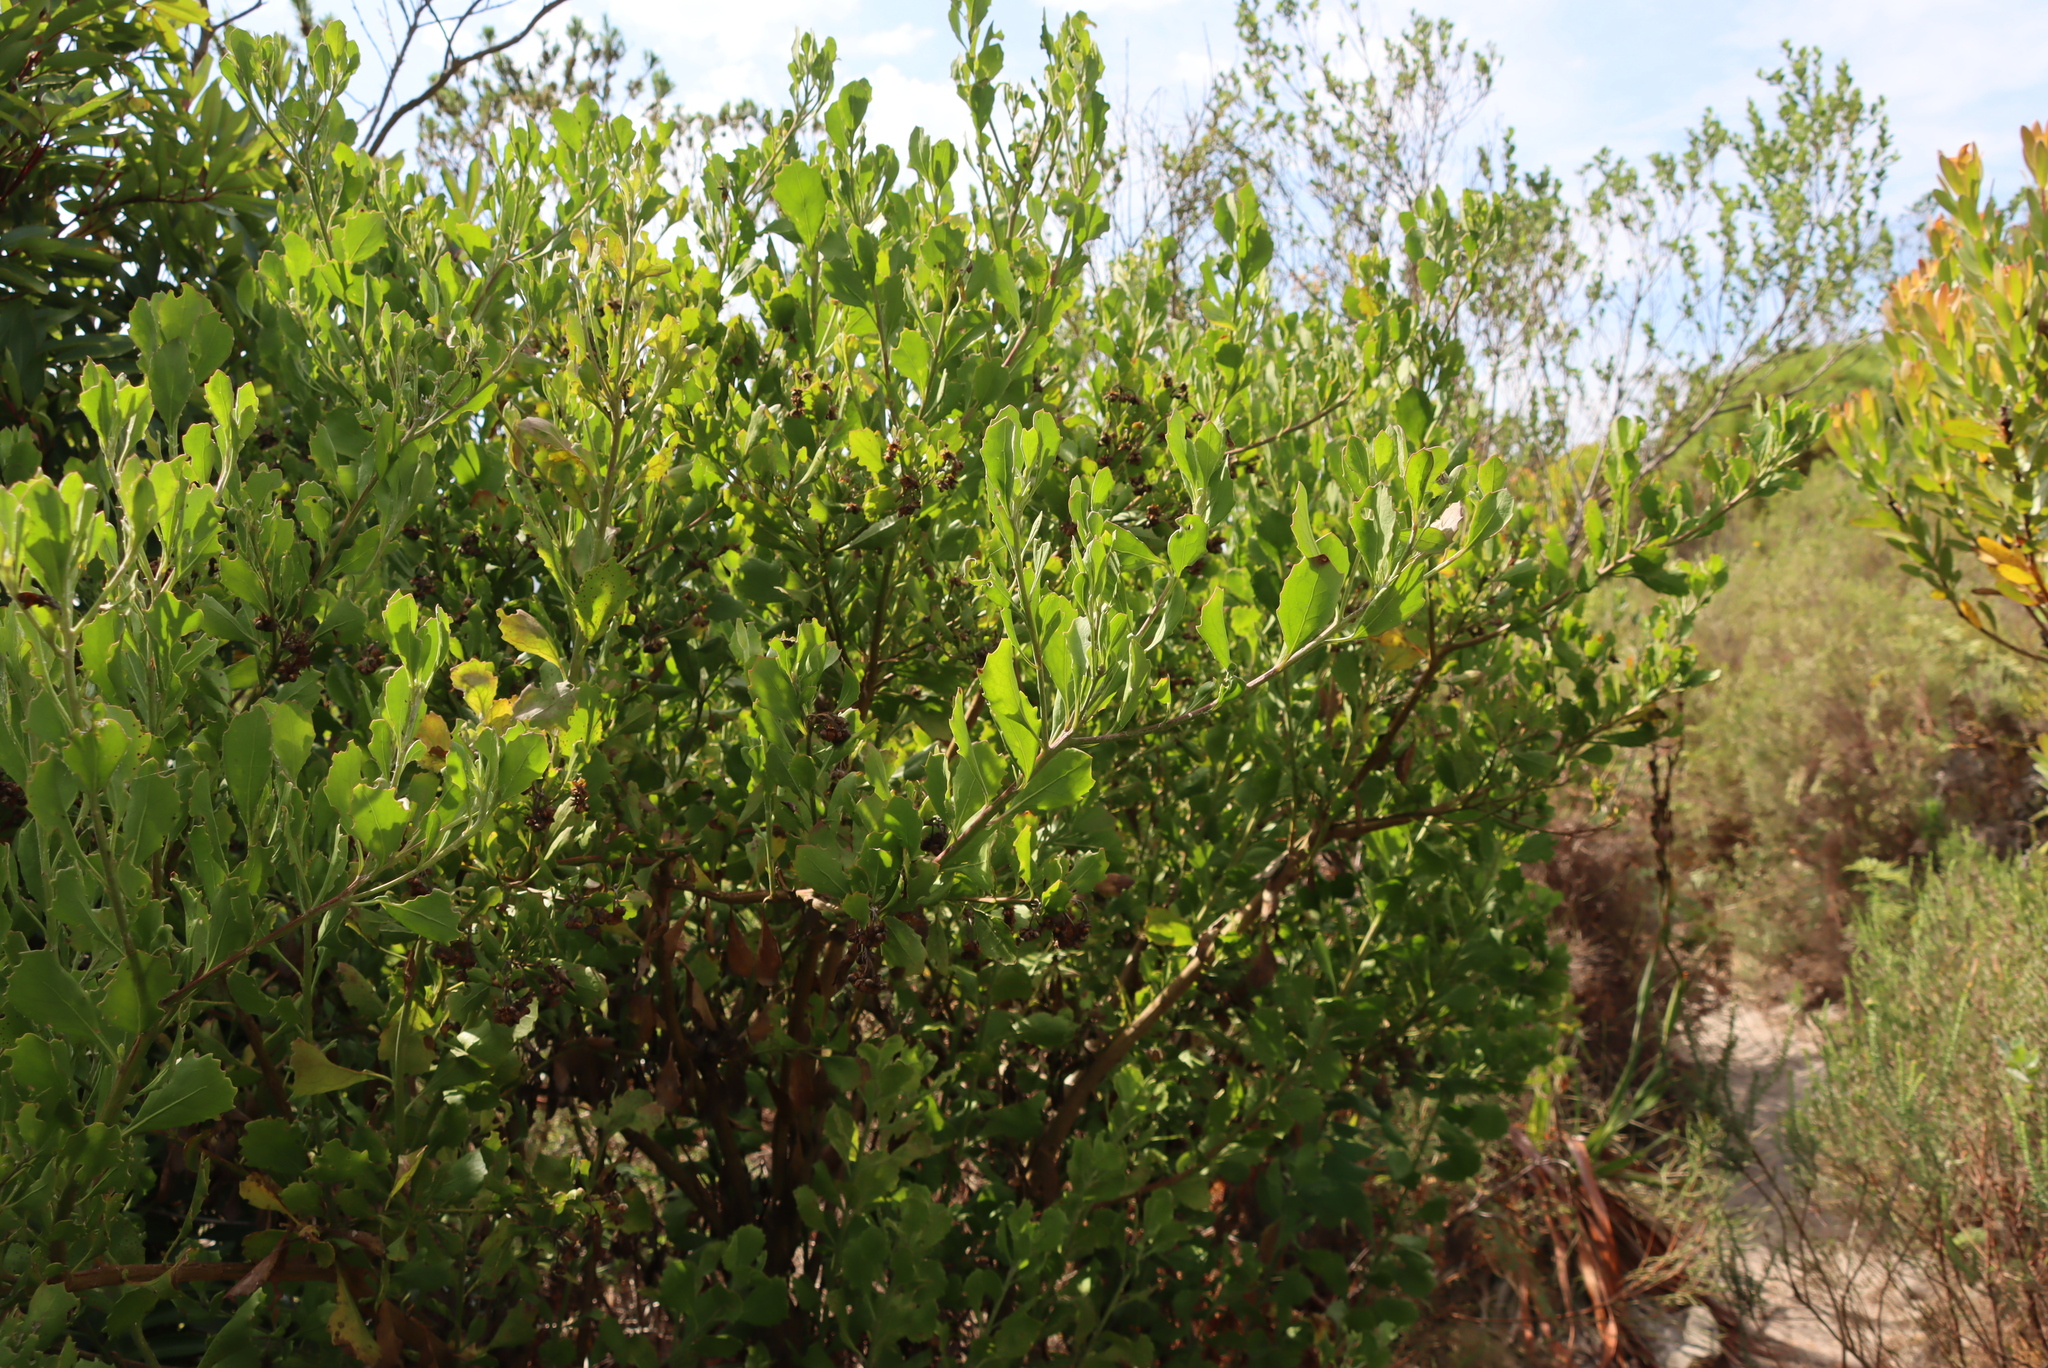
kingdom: Plantae
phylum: Tracheophyta
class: Magnoliopsida
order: Asterales
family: Asteraceae
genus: Osteospermum
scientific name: Osteospermum moniliferum
